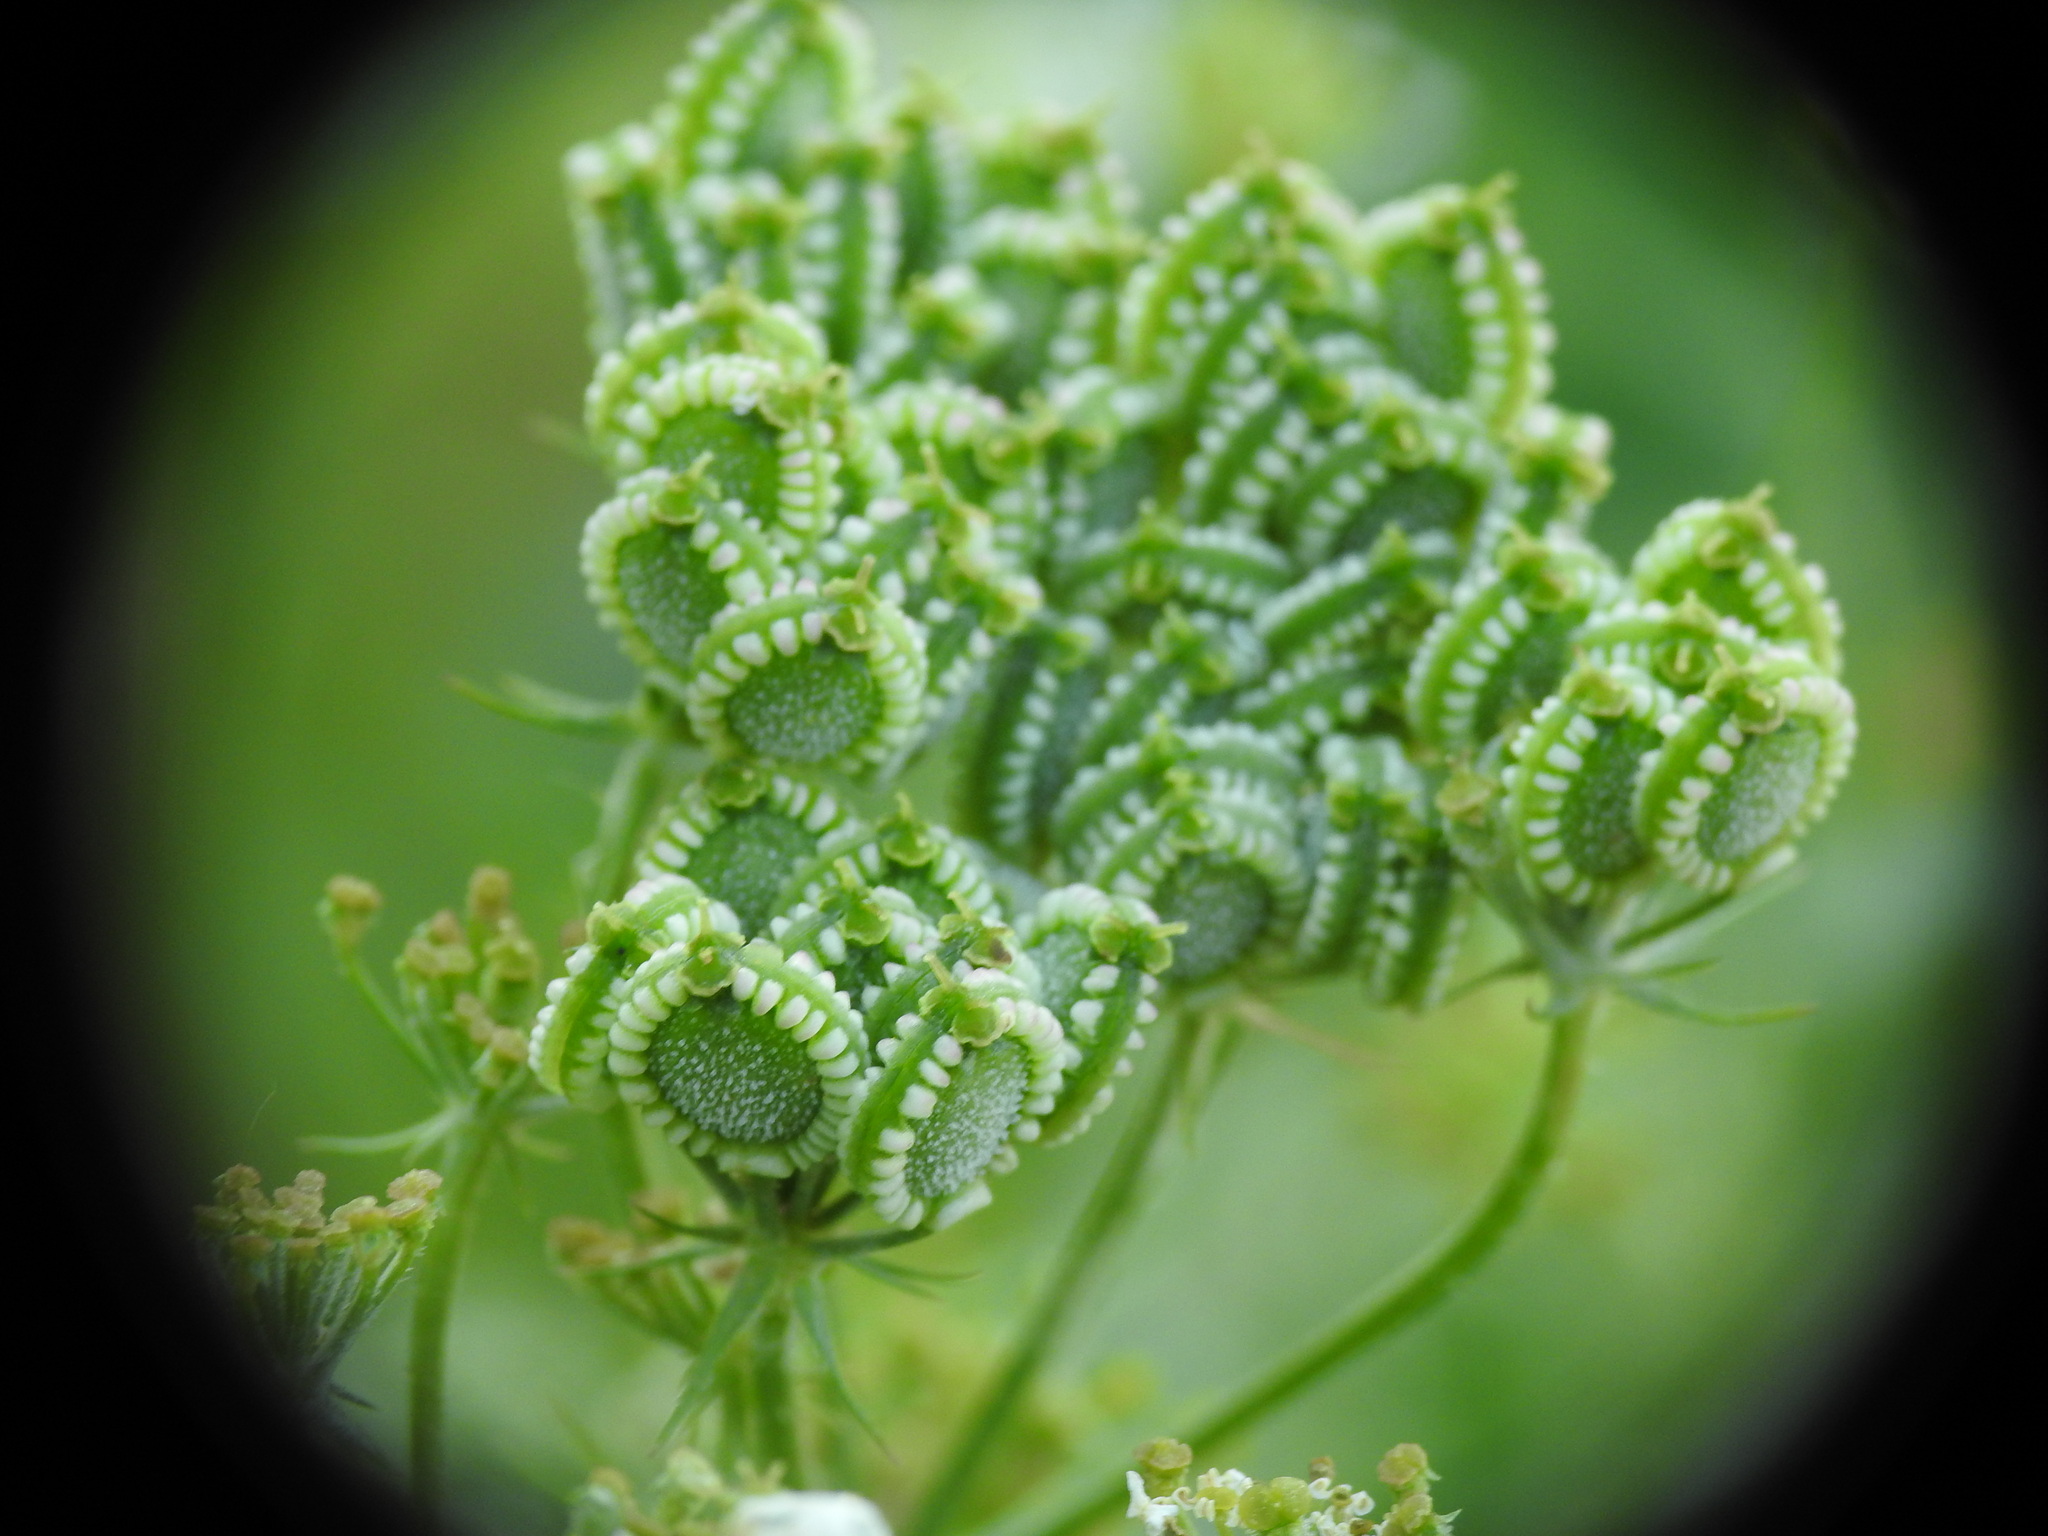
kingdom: Plantae
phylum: Tracheophyta
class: Magnoliopsida
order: Apiales
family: Apiaceae
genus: Tordylium
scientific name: Tordylium apulum
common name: Mediterranean hartwort
